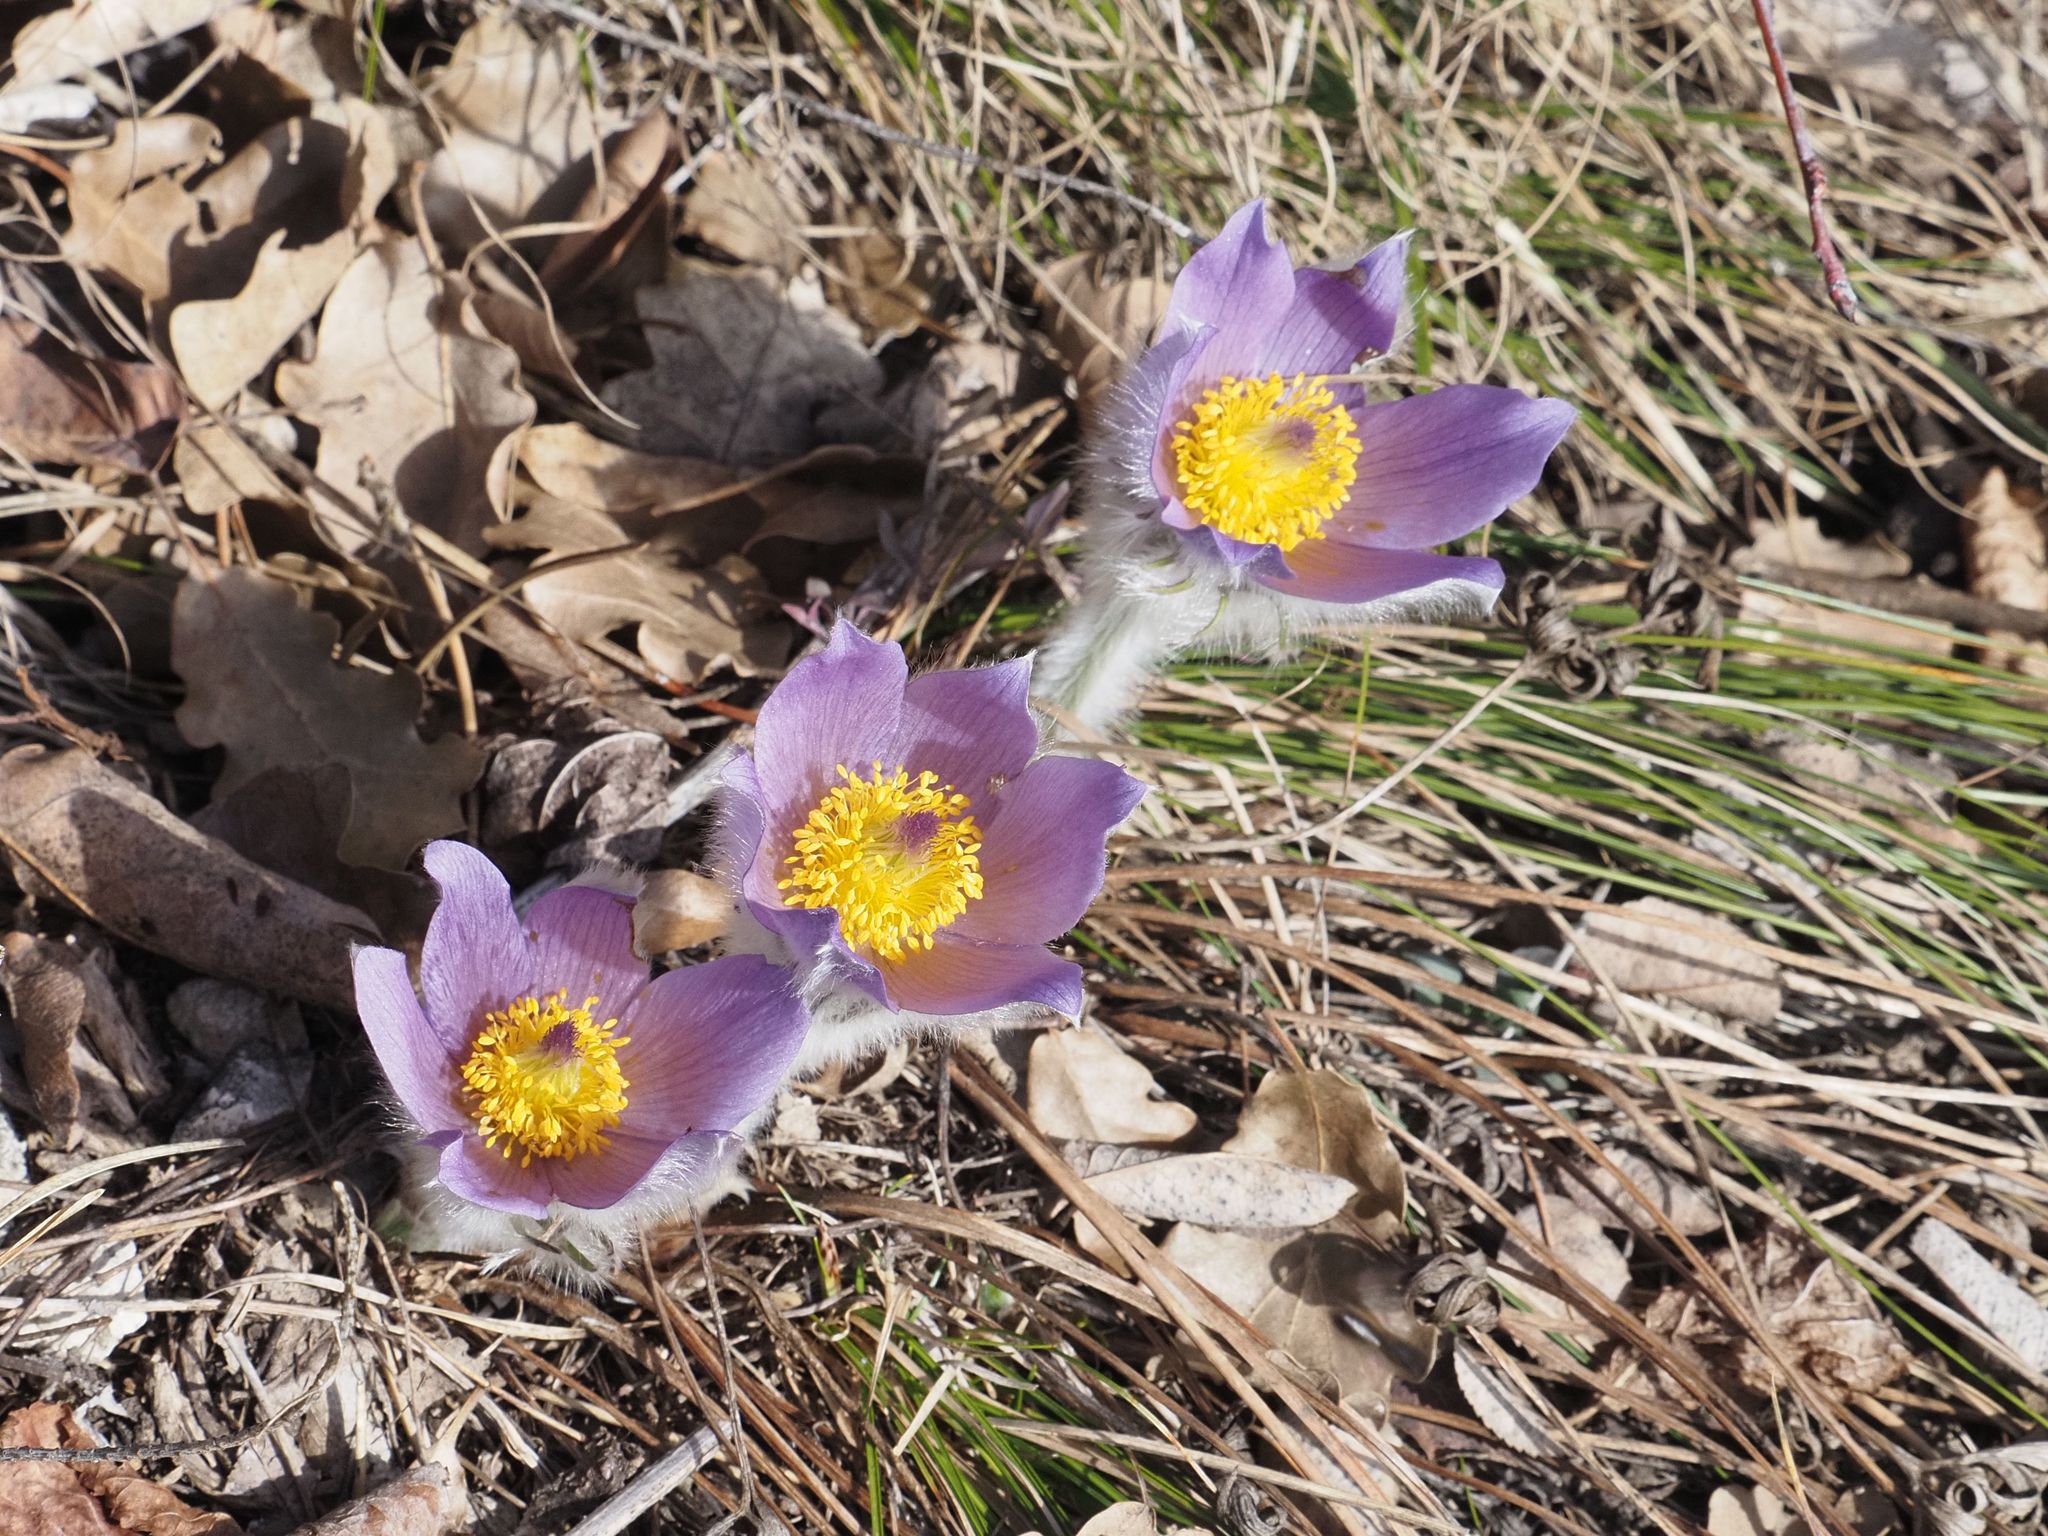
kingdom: Plantae
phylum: Tracheophyta
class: Magnoliopsida
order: Ranunculales
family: Ranunculaceae
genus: Pulsatilla
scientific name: Pulsatilla grandis
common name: Greater pasque flower
